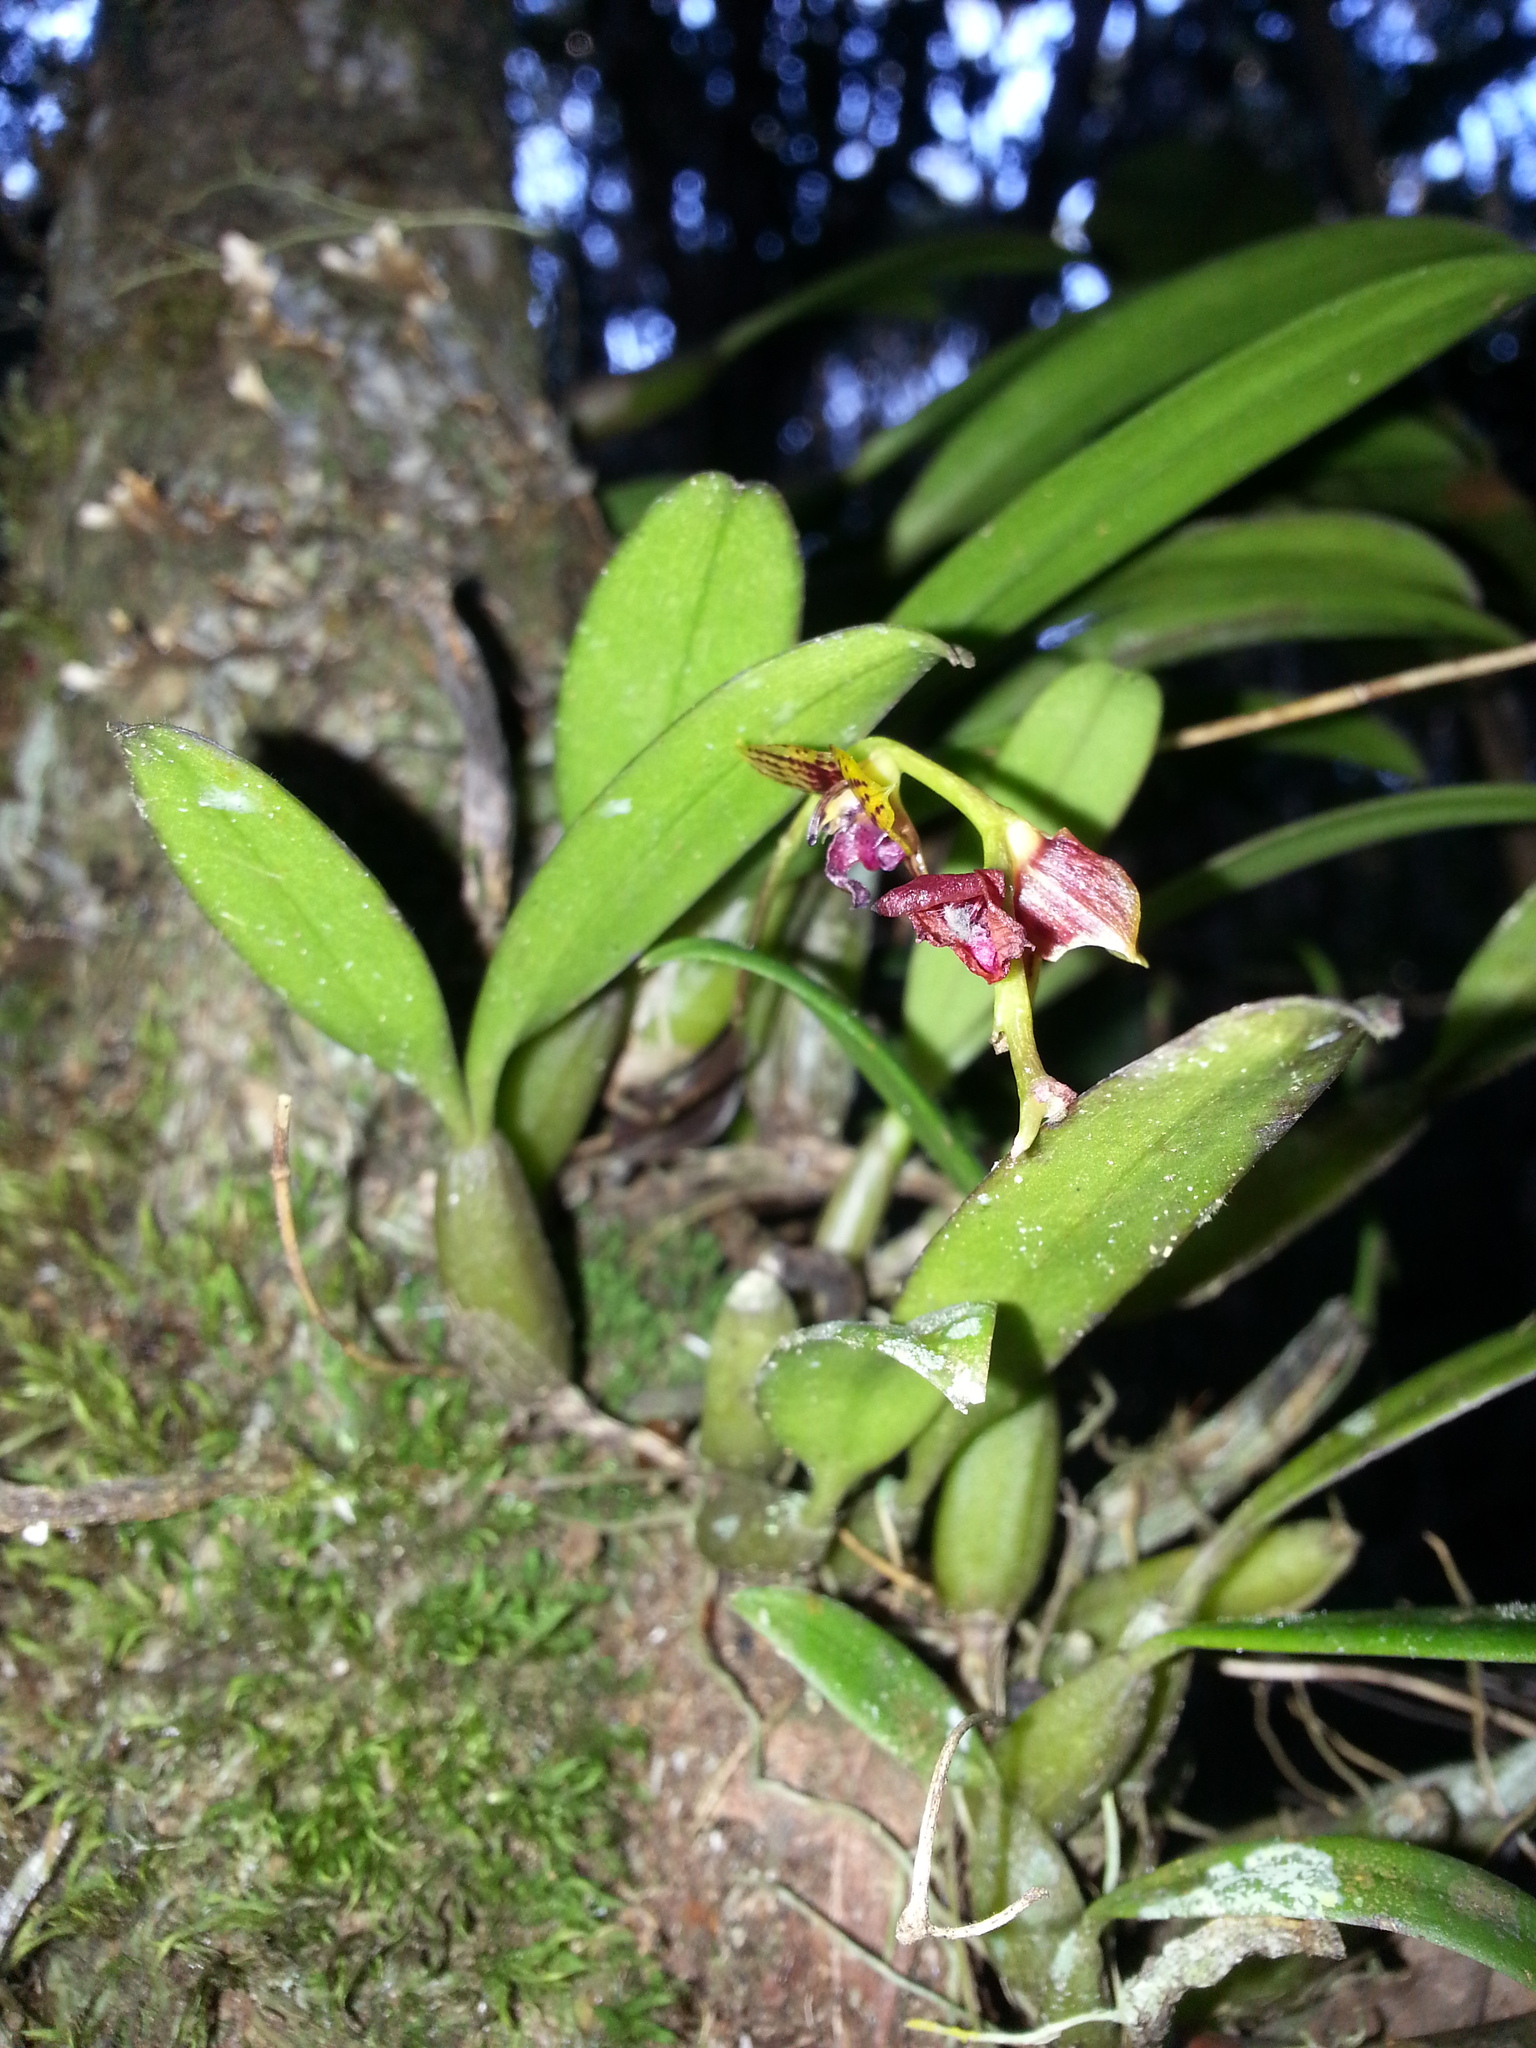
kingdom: Plantae
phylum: Tracheophyta
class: Liliopsida
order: Asparagales
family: Orchidaceae
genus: Bulbophyllum
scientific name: Bulbophyllum francoisii
